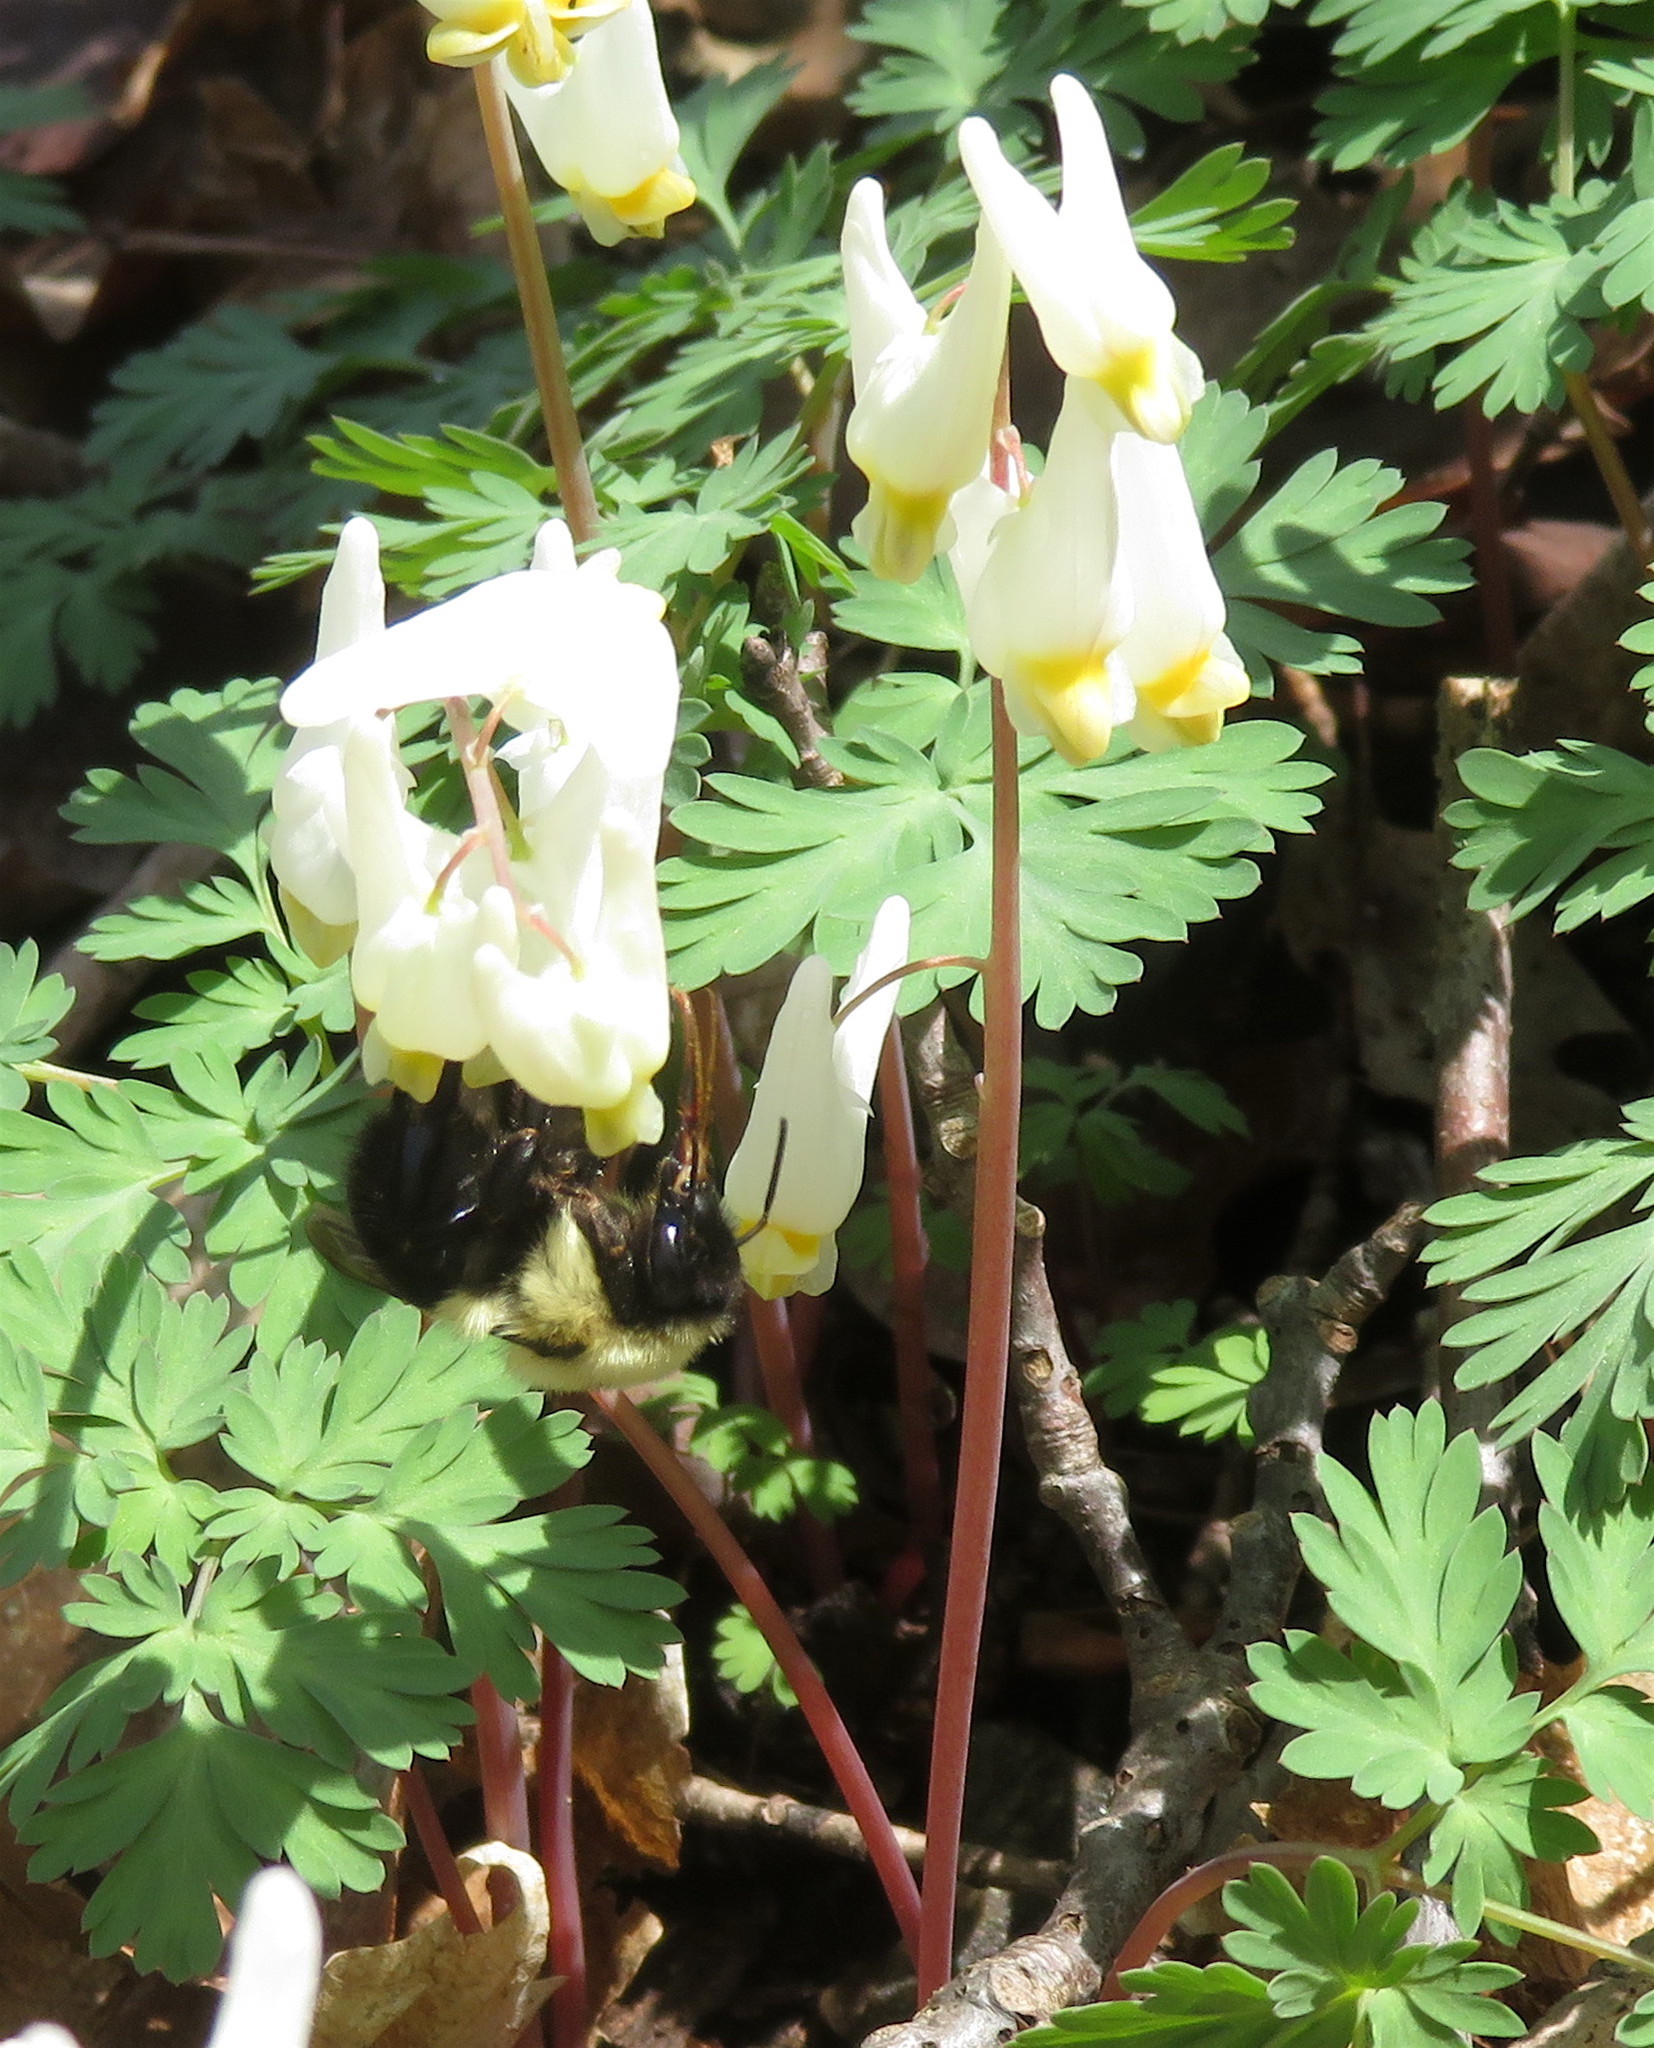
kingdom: Plantae
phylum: Tracheophyta
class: Magnoliopsida
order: Ranunculales
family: Papaveraceae
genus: Dicentra
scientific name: Dicentra cucullaria
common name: Dutchman's breeches
